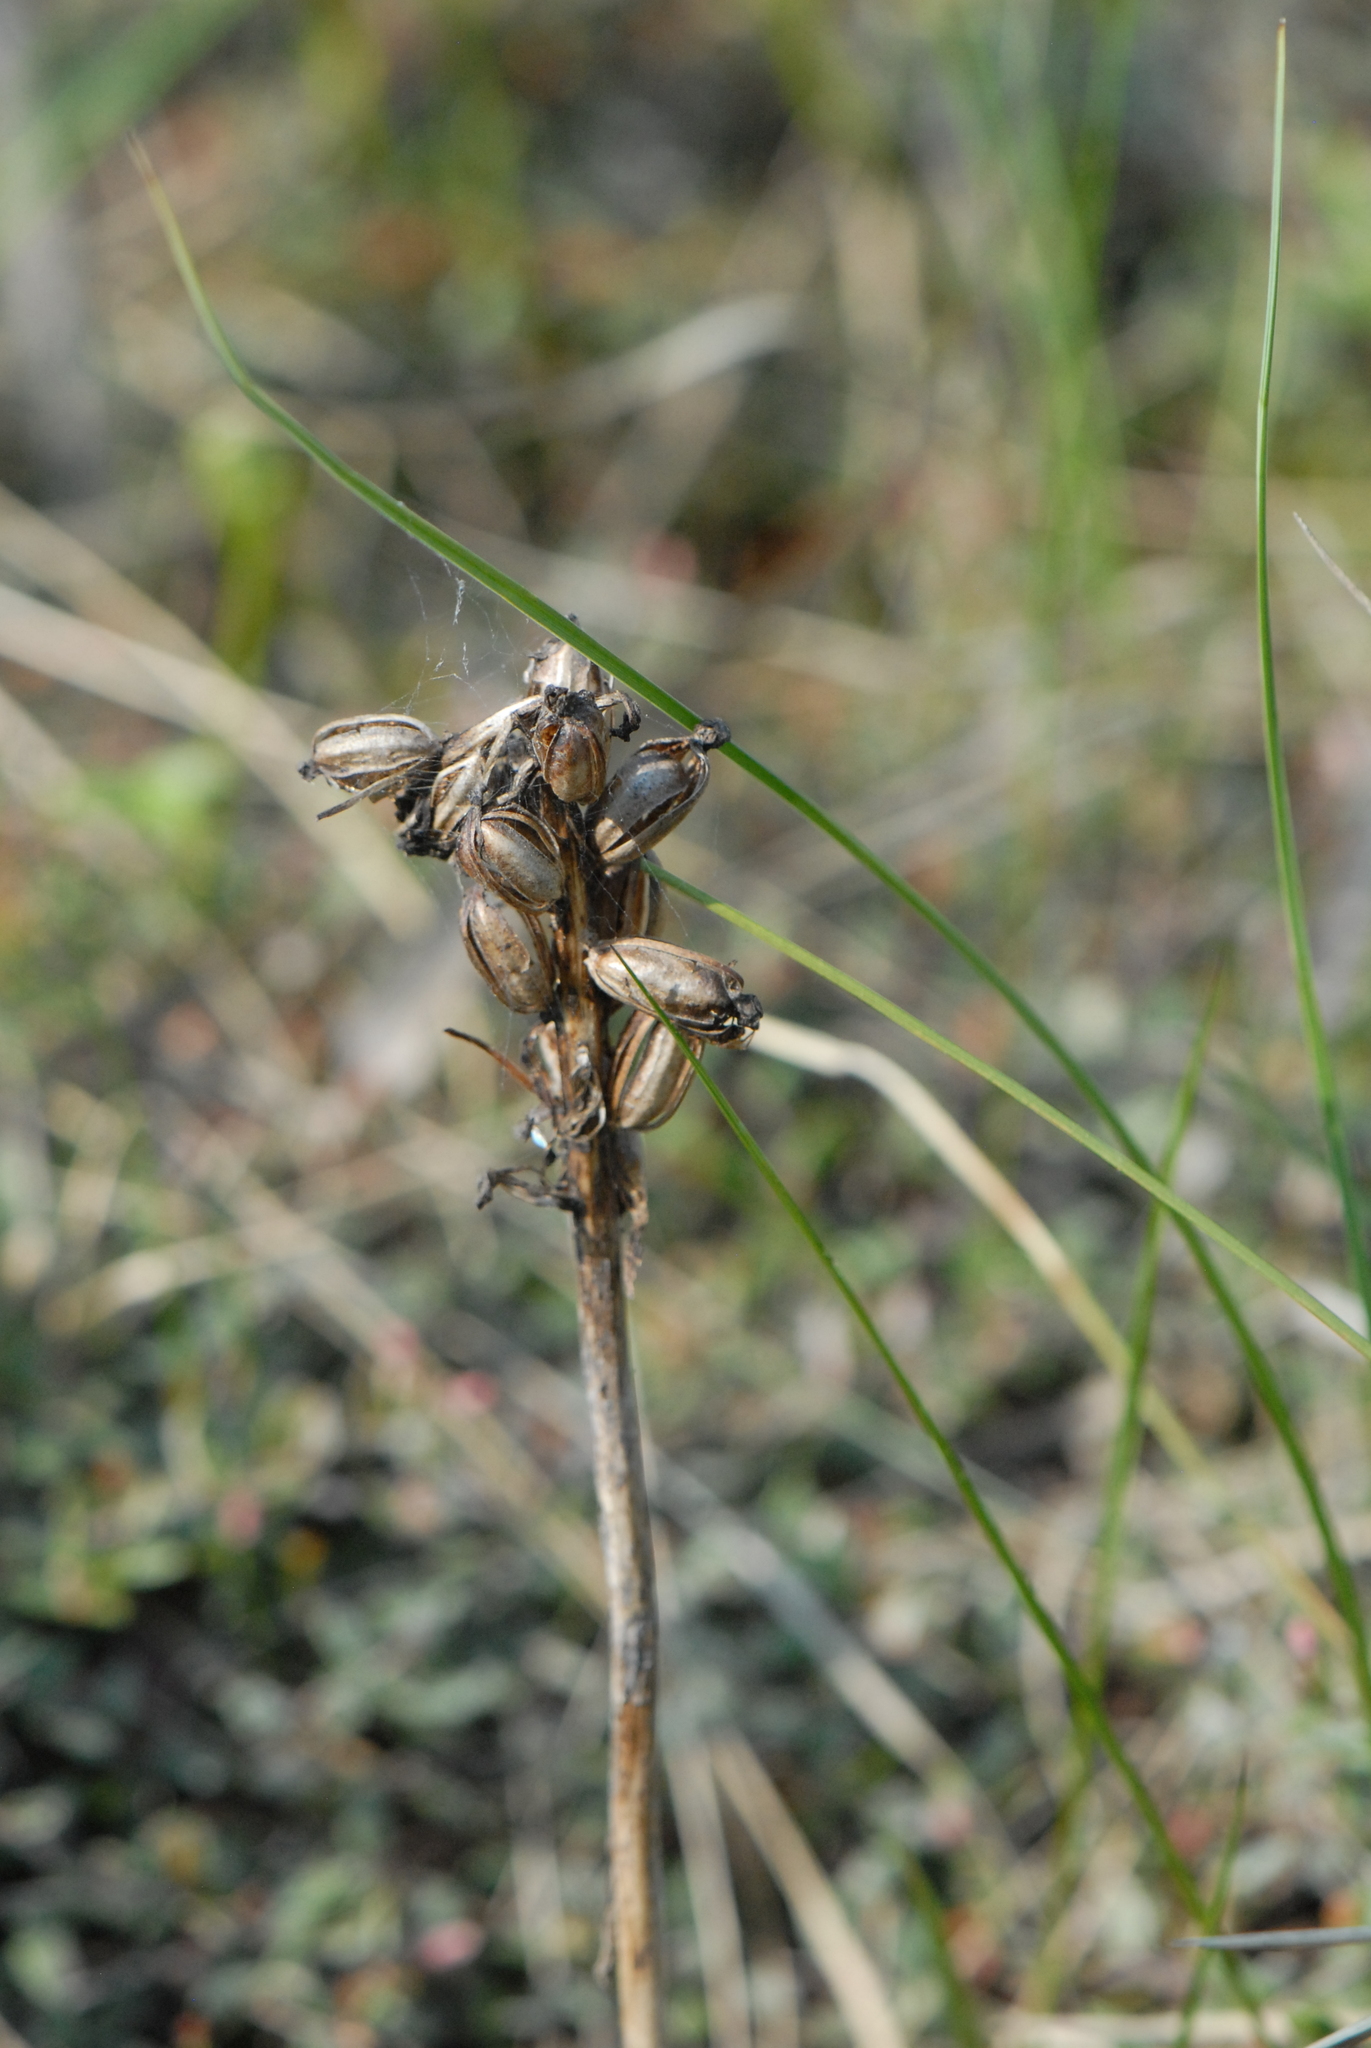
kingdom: Plantae
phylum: Tracheophyta
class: Liliopsida
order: Asparagales
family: Orchidaceae
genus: Neottia
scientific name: Neottia nidus-avis
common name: Bird's-nest orchid
